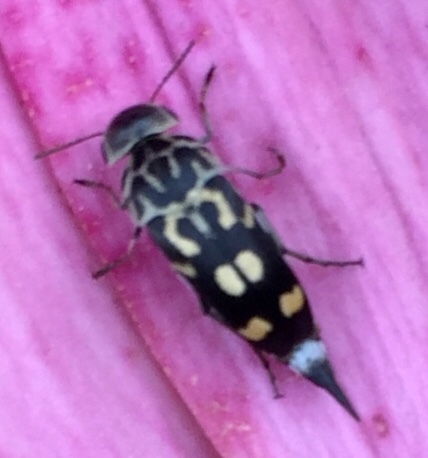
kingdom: Animalia
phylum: Arthropoda
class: Insecta
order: Coleoptera
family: Mordellidae
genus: Hoshihananomia
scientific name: Hoshihananomia octopunctata
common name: Eight-spotted tumbling flower beetle
